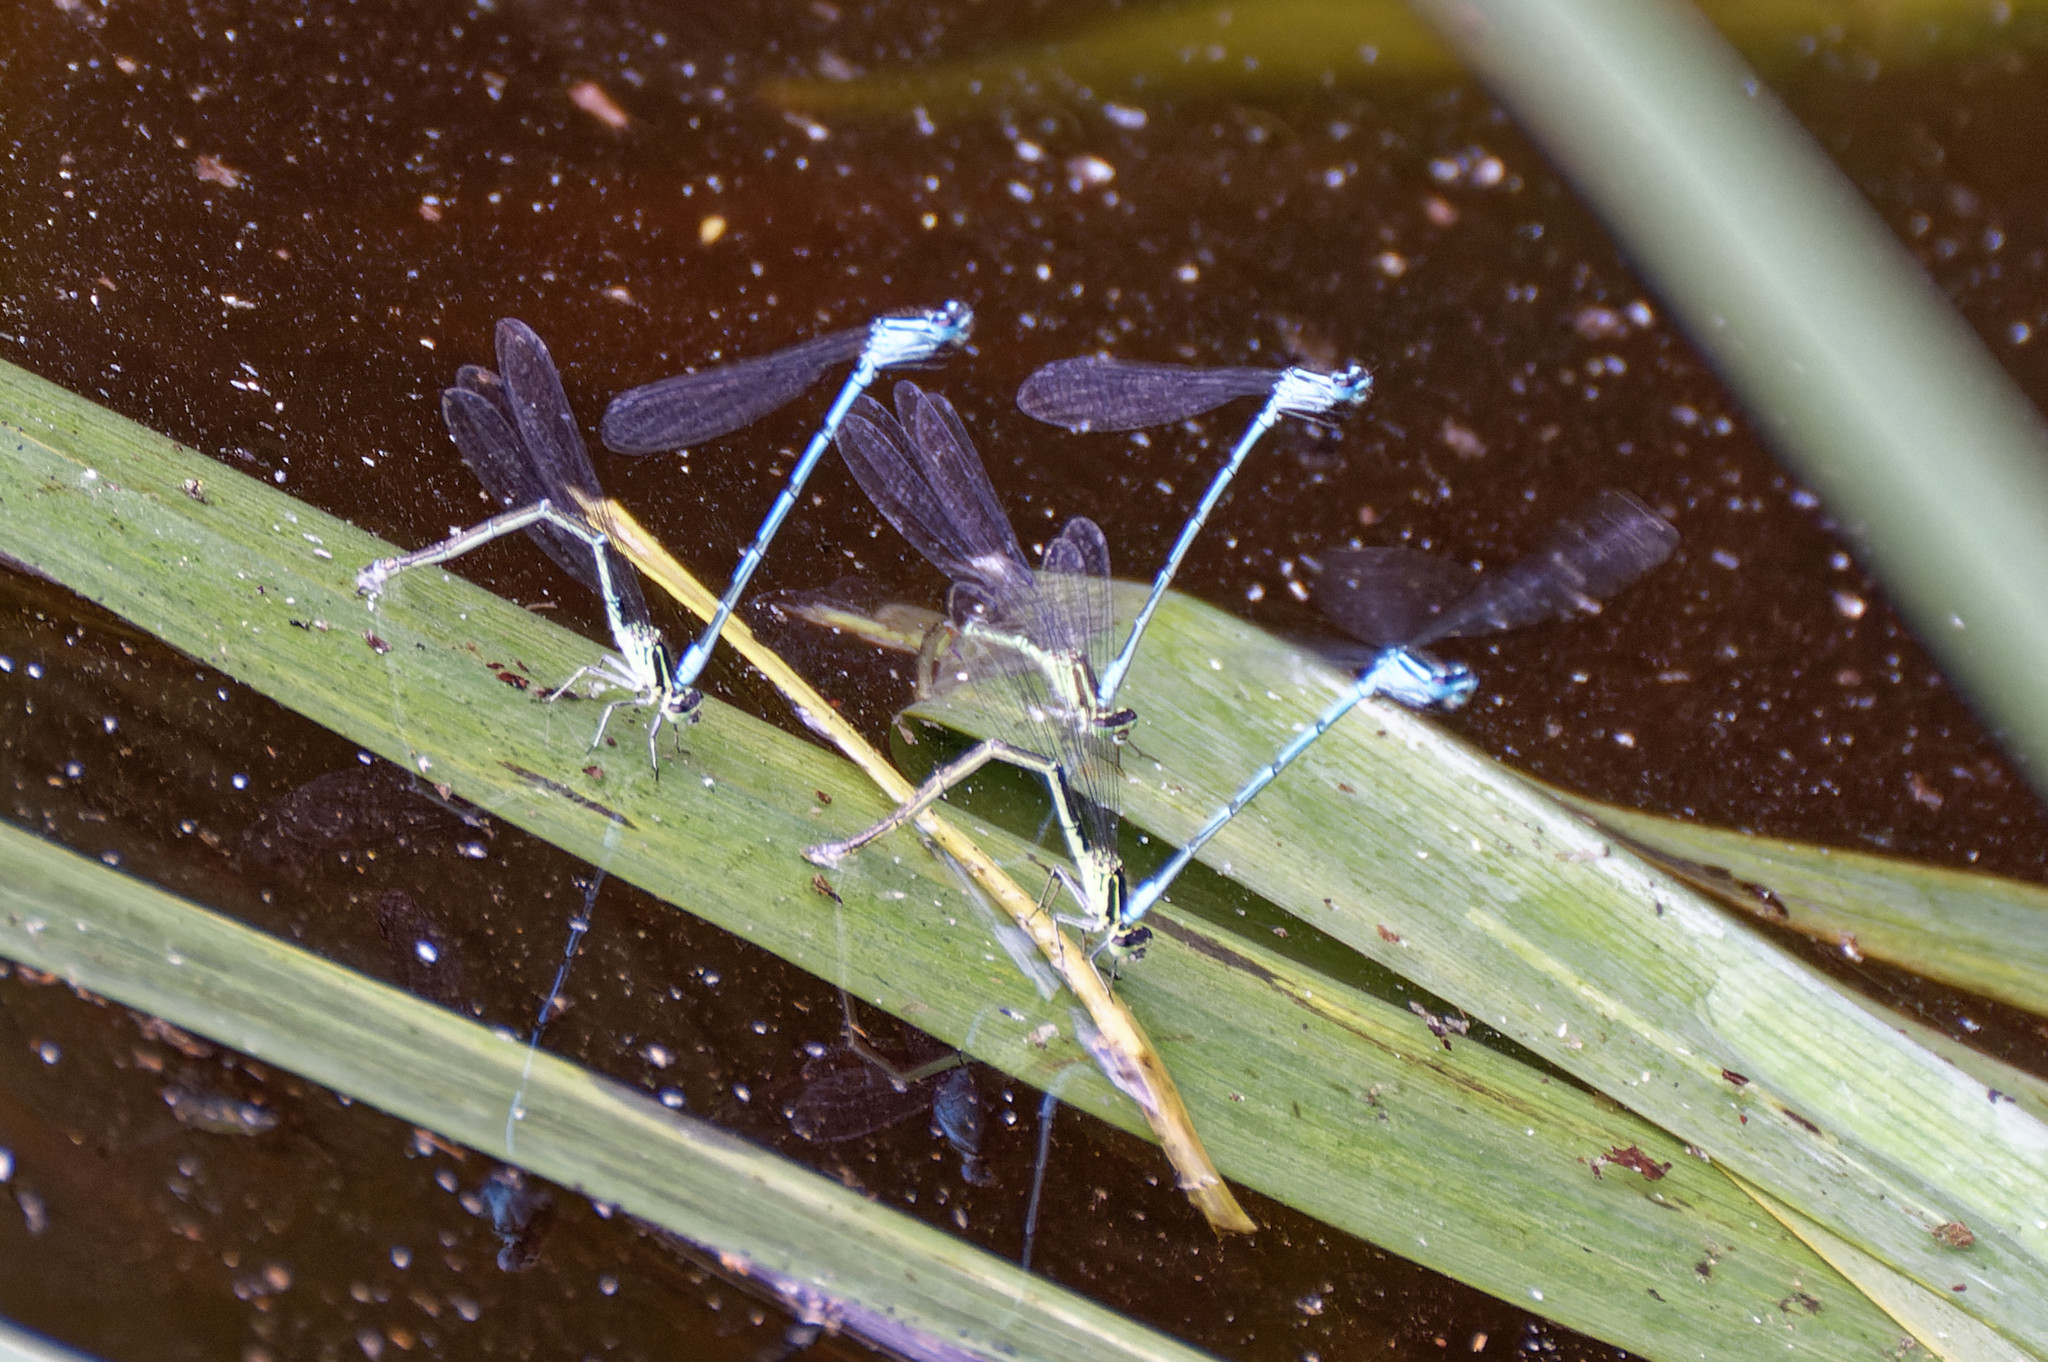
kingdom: Animalia
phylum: Arthropoda
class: Insecta
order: Odonata
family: Coenagrionidae
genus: Coenagrion
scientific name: Coenagrion puella
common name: Azure damselfly
